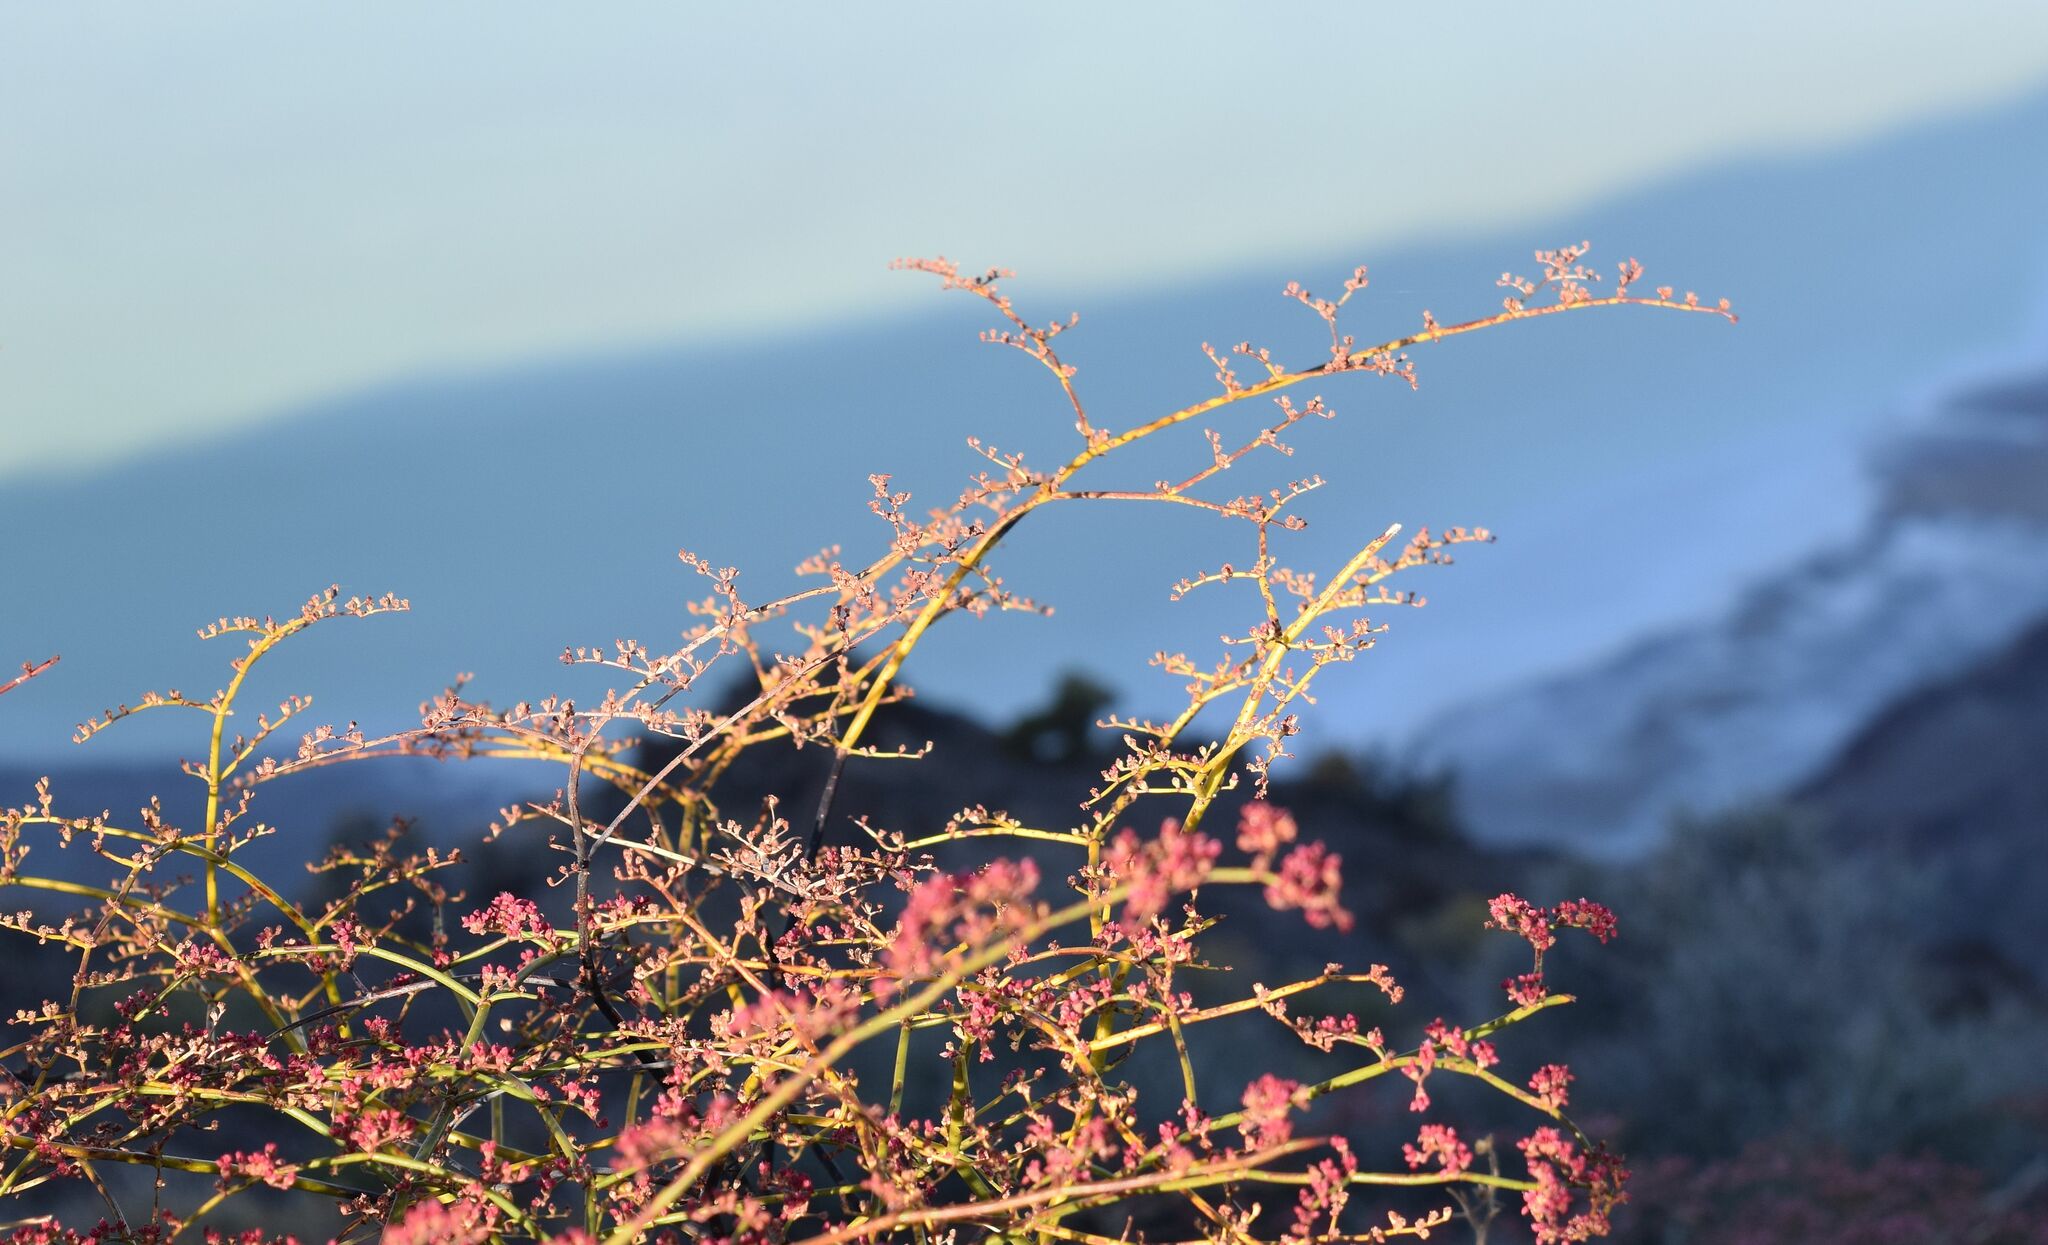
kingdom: Plantae
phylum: Tracheophyta
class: Magnoliopsida
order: Caryophyllales
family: Polygonaceae
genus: Eriogonum
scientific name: Eriogonum hoffmannii
